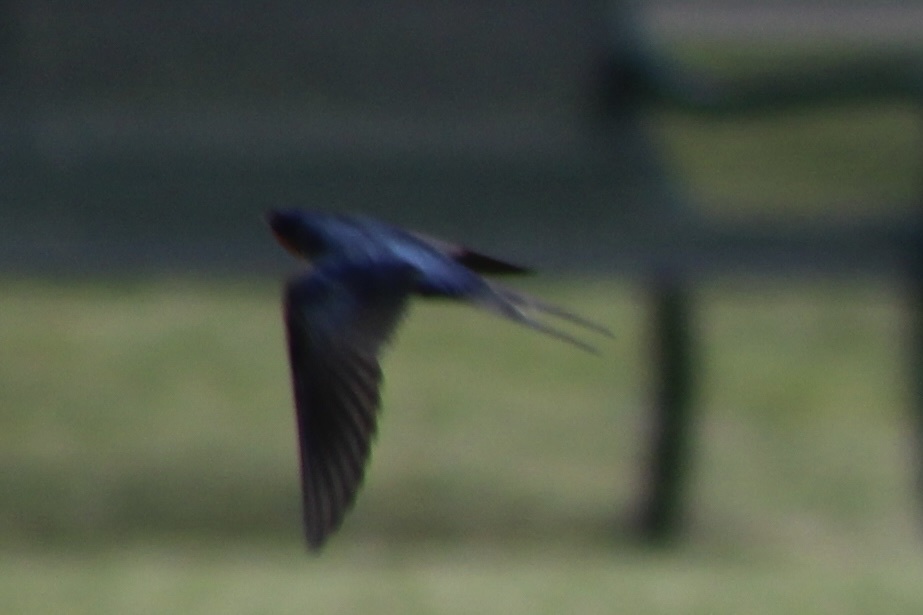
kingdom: Animalia
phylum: Chordata
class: Aves
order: Passeriformes
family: Hirundinidae
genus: Hirundo
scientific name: Hirundo rustica
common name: Barn swallow
